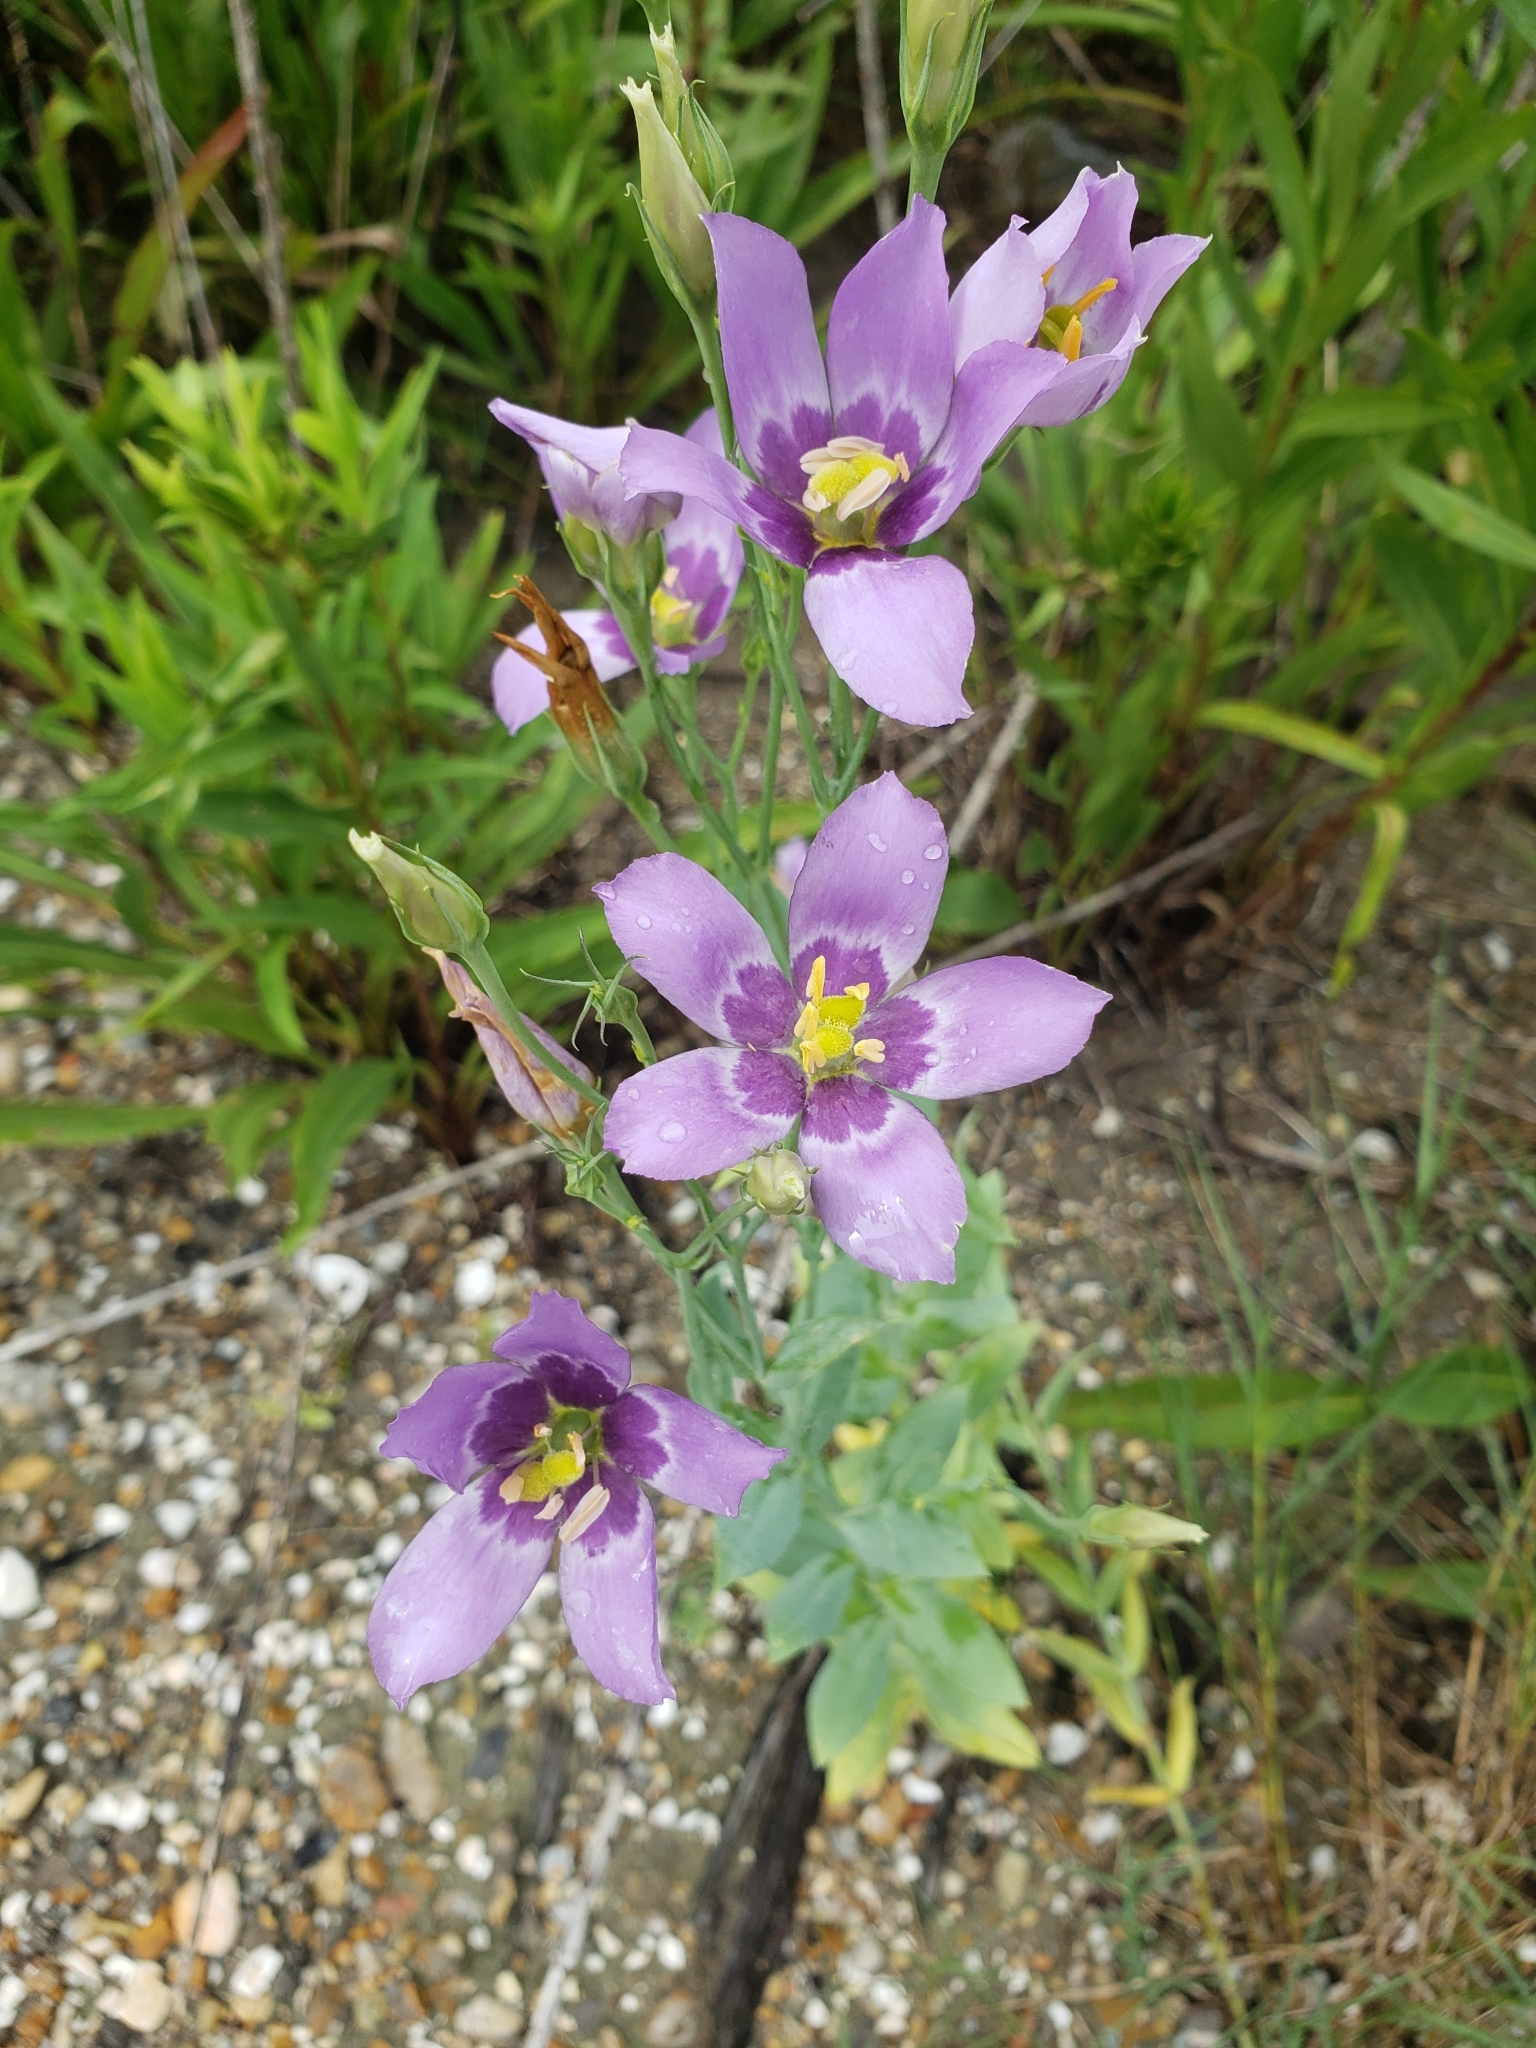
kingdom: Plantae
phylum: Tracheophyta
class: Magnoliopsida
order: Gentianales
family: Gentianaceae
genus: Eustoma
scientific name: Eustoma exaltatum
